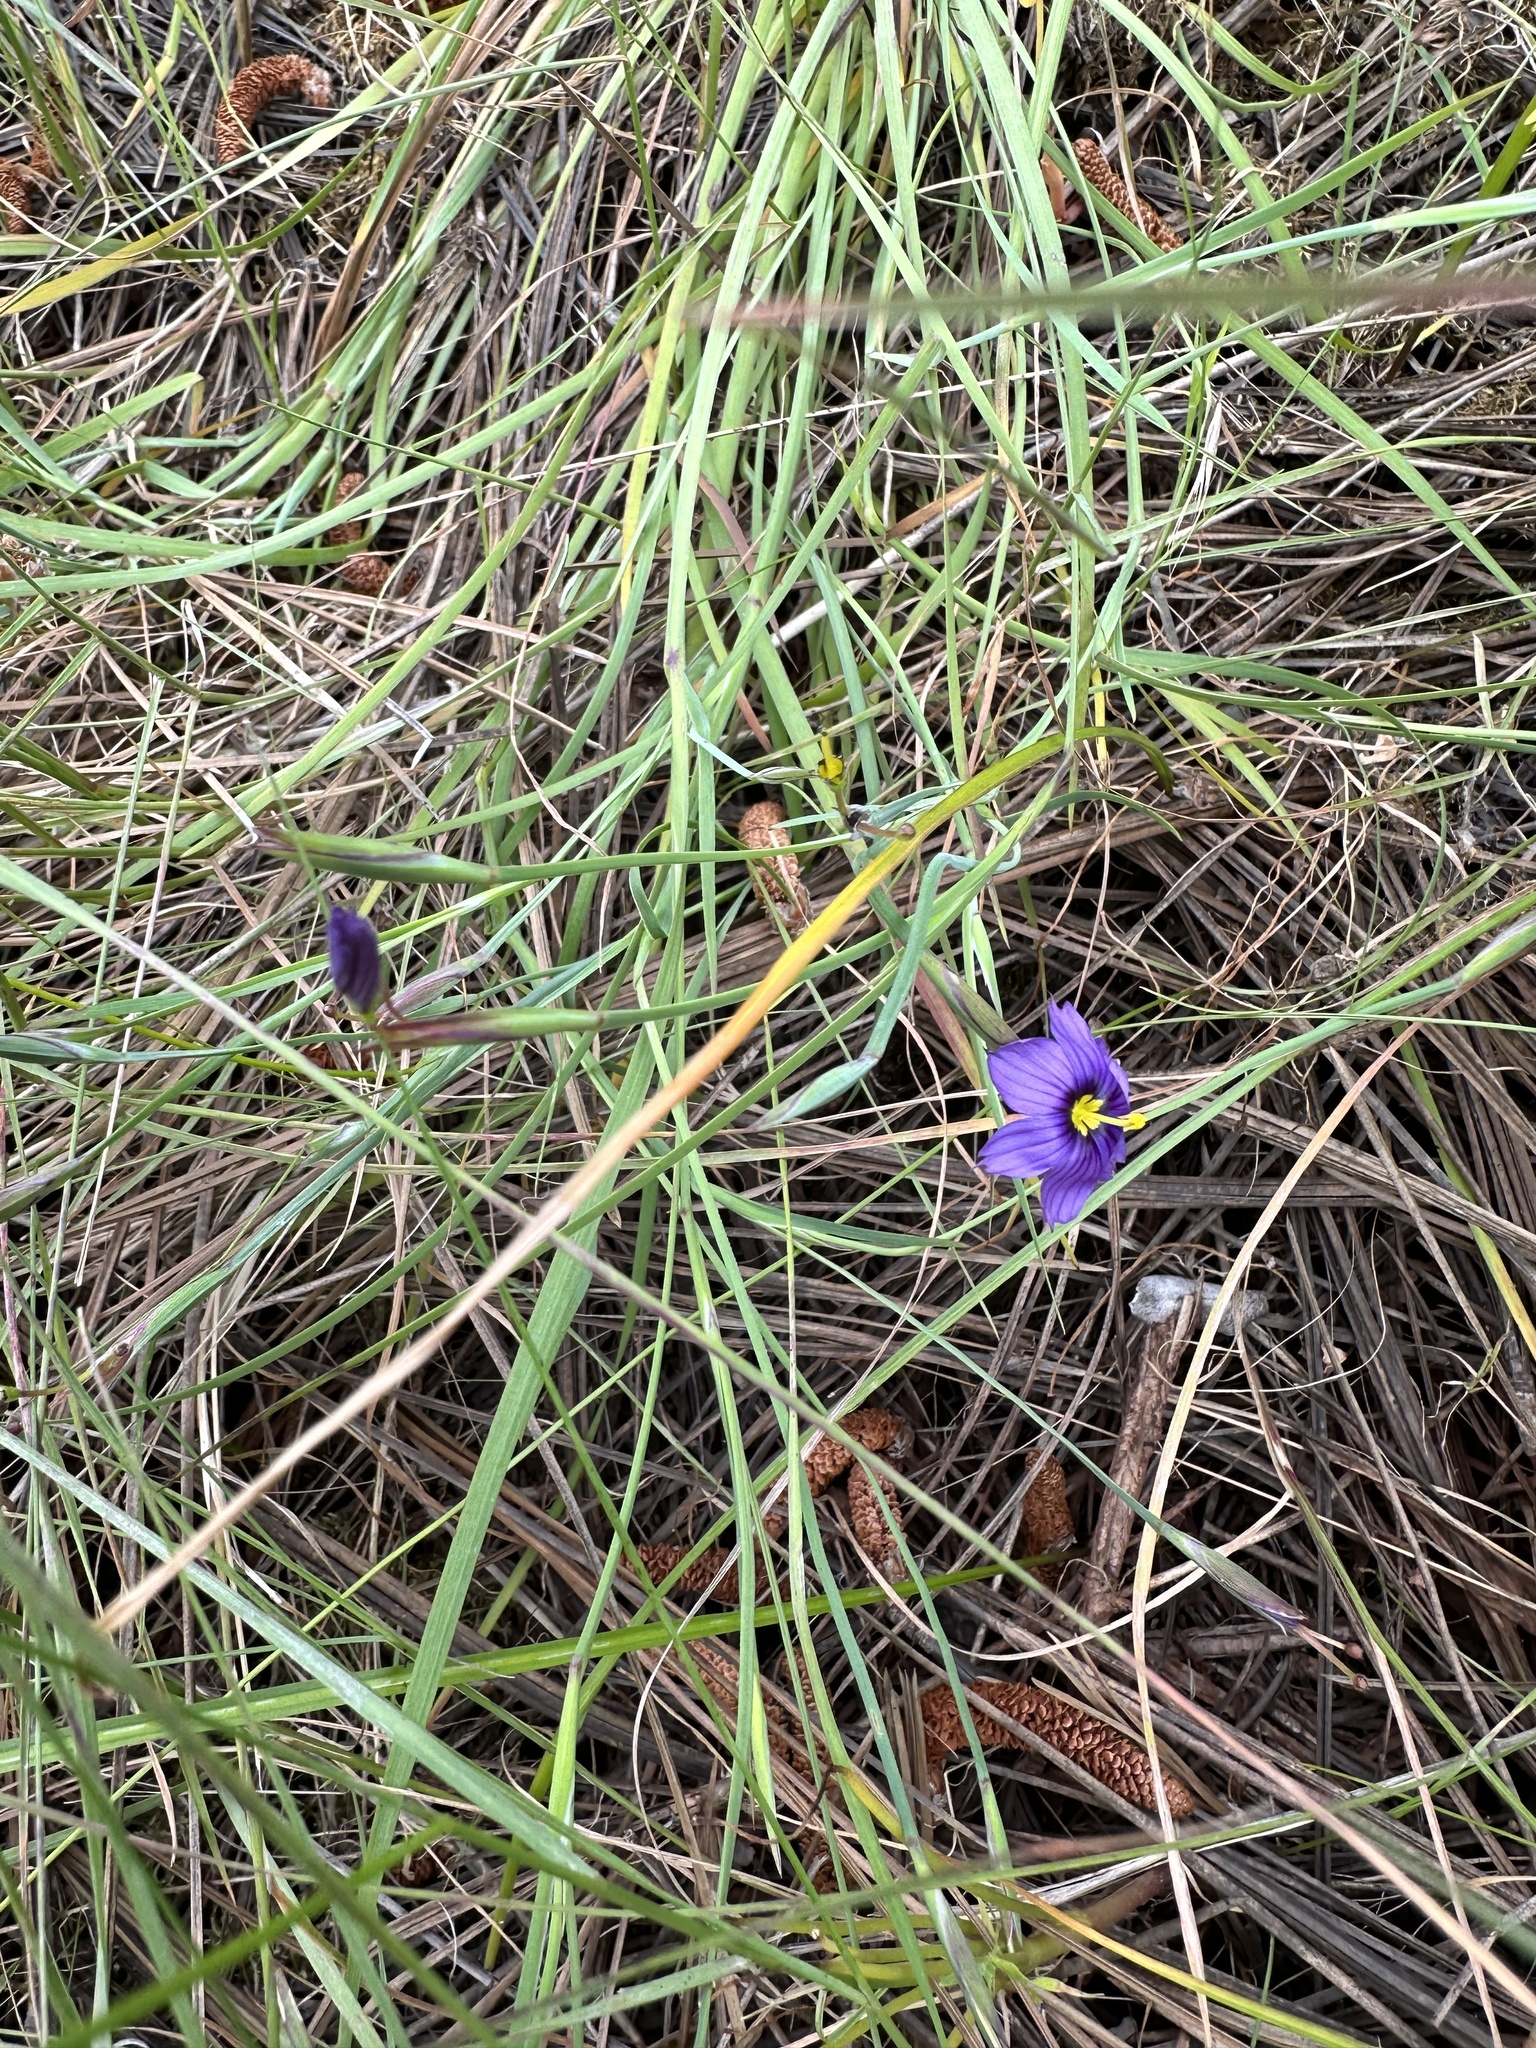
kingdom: Plantae
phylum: Tracheophyta
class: Liliopsida
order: Asparagales
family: Iridaceae
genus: Sisyrinchium
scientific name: Sisyrinchium bellum
